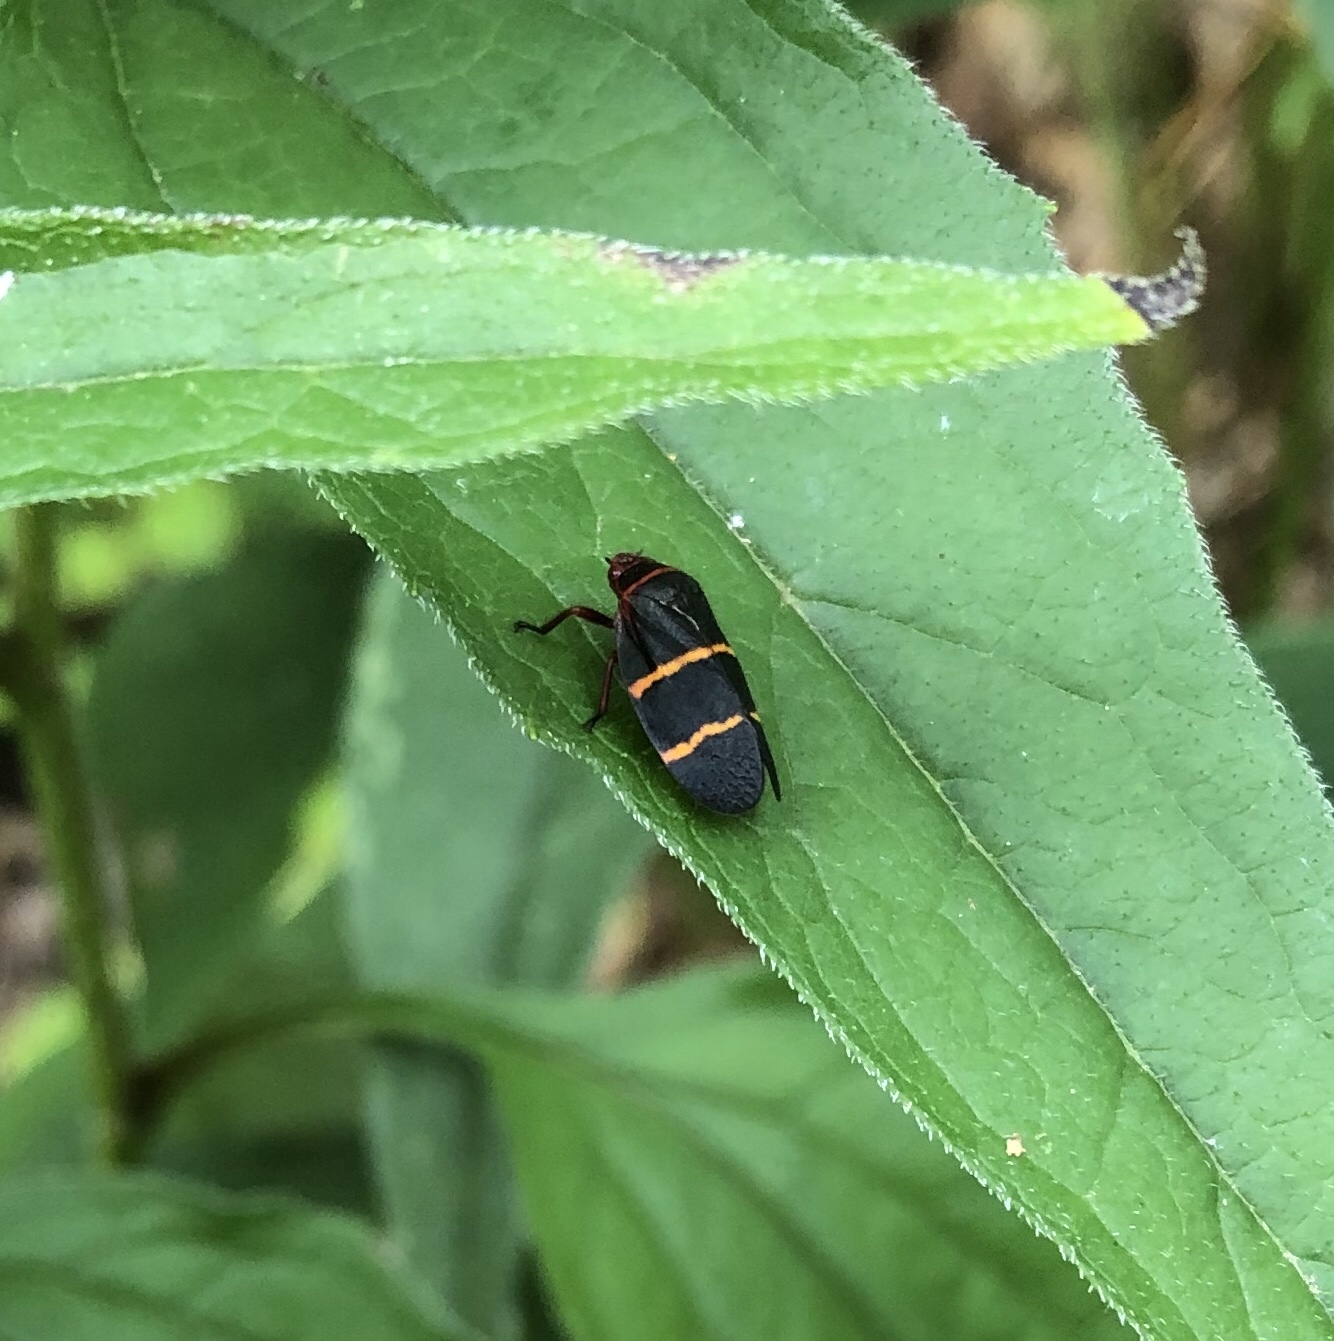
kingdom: Animalia
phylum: Arthropoda
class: Insecta
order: Hemiptera
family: Cercopidae
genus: Prosapia
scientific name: Prosapia bicincta
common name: Twolined spittlebug
